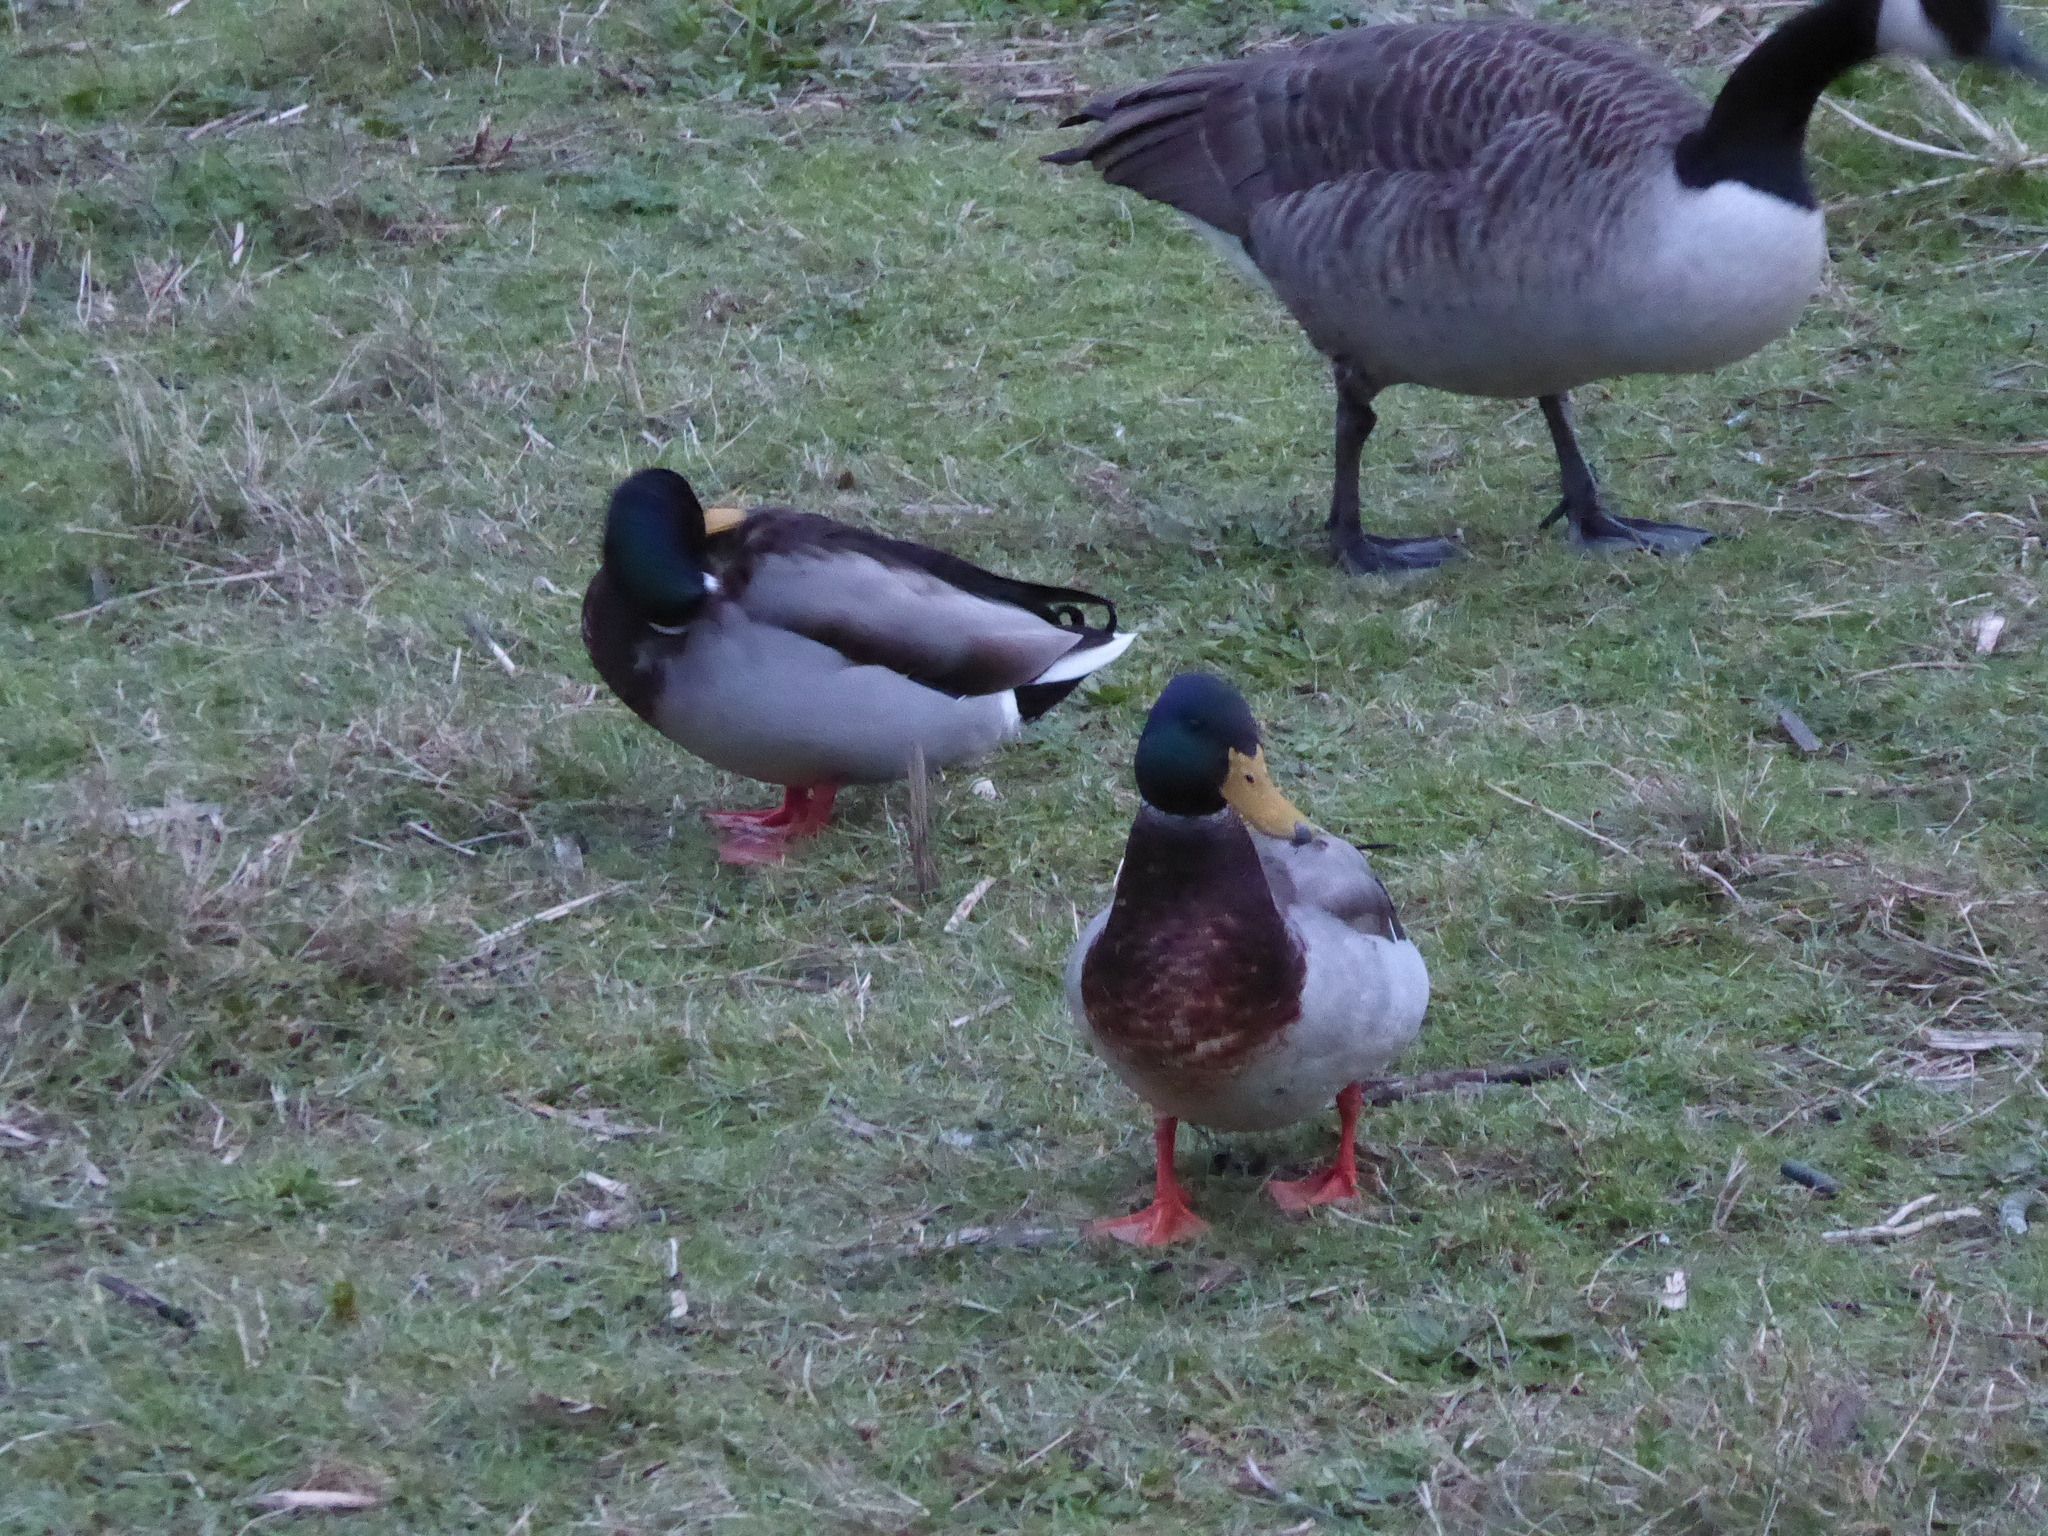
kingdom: Animalia
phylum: Chordata
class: Aves
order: Anseriformes
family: Anatidae
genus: Anas
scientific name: Anas platyrhynchos
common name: Mallard
